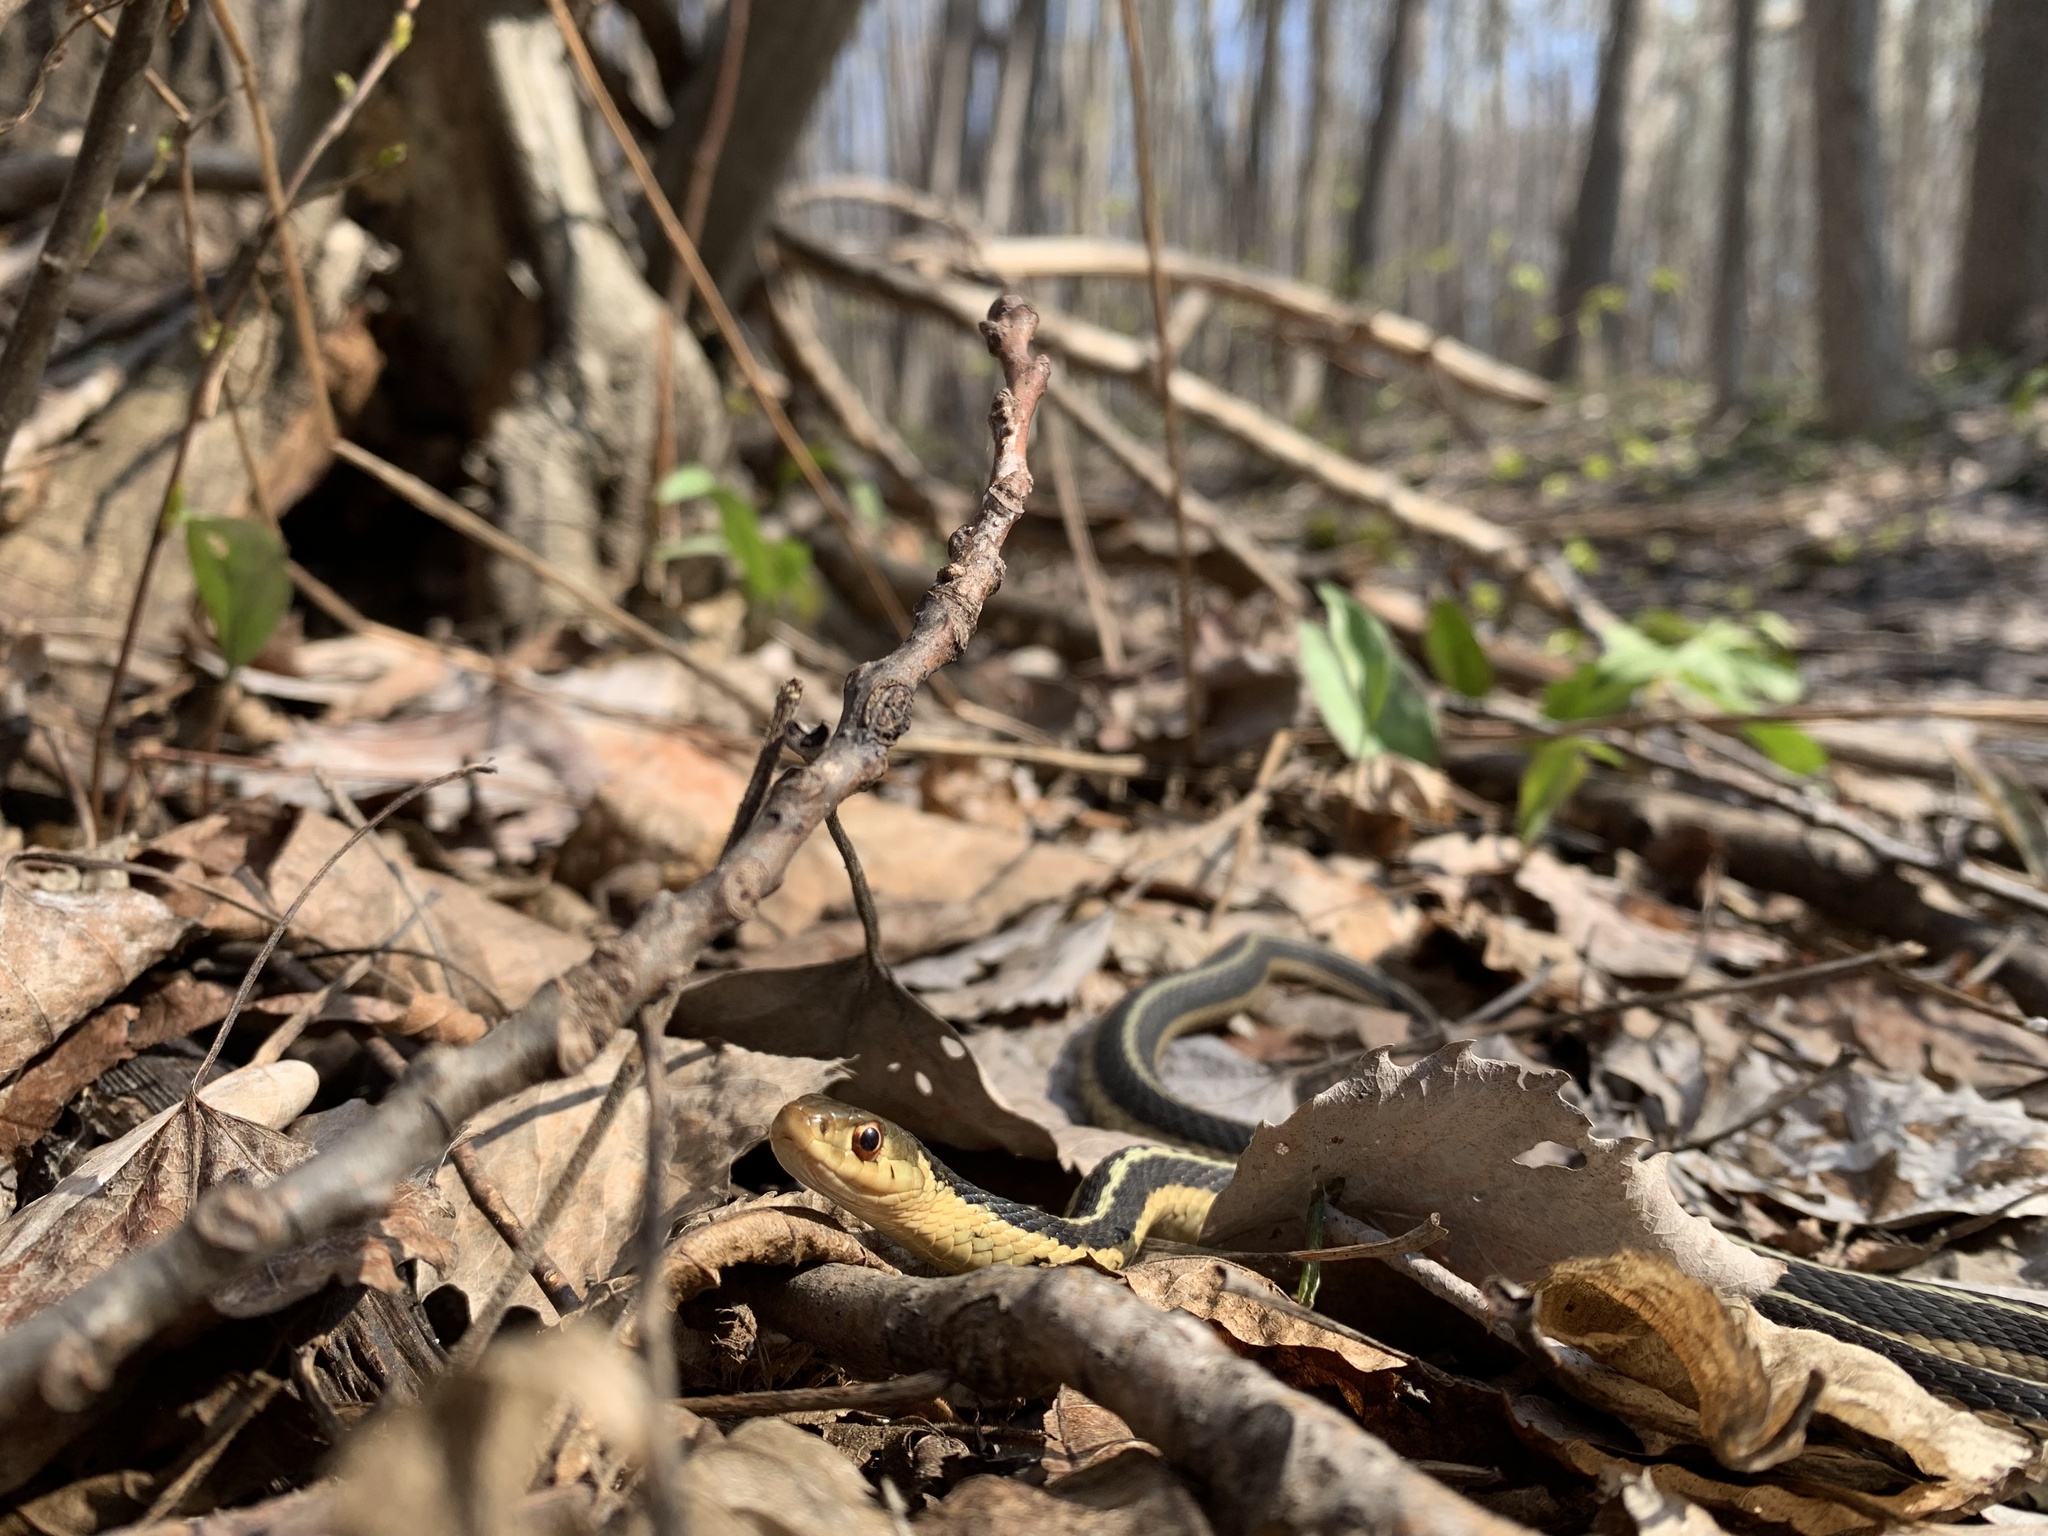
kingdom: Animalia
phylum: Chordata
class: Squamata
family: Colubridae
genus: Thamnophis
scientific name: Thamnophis sirtalis
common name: Common garter snake
